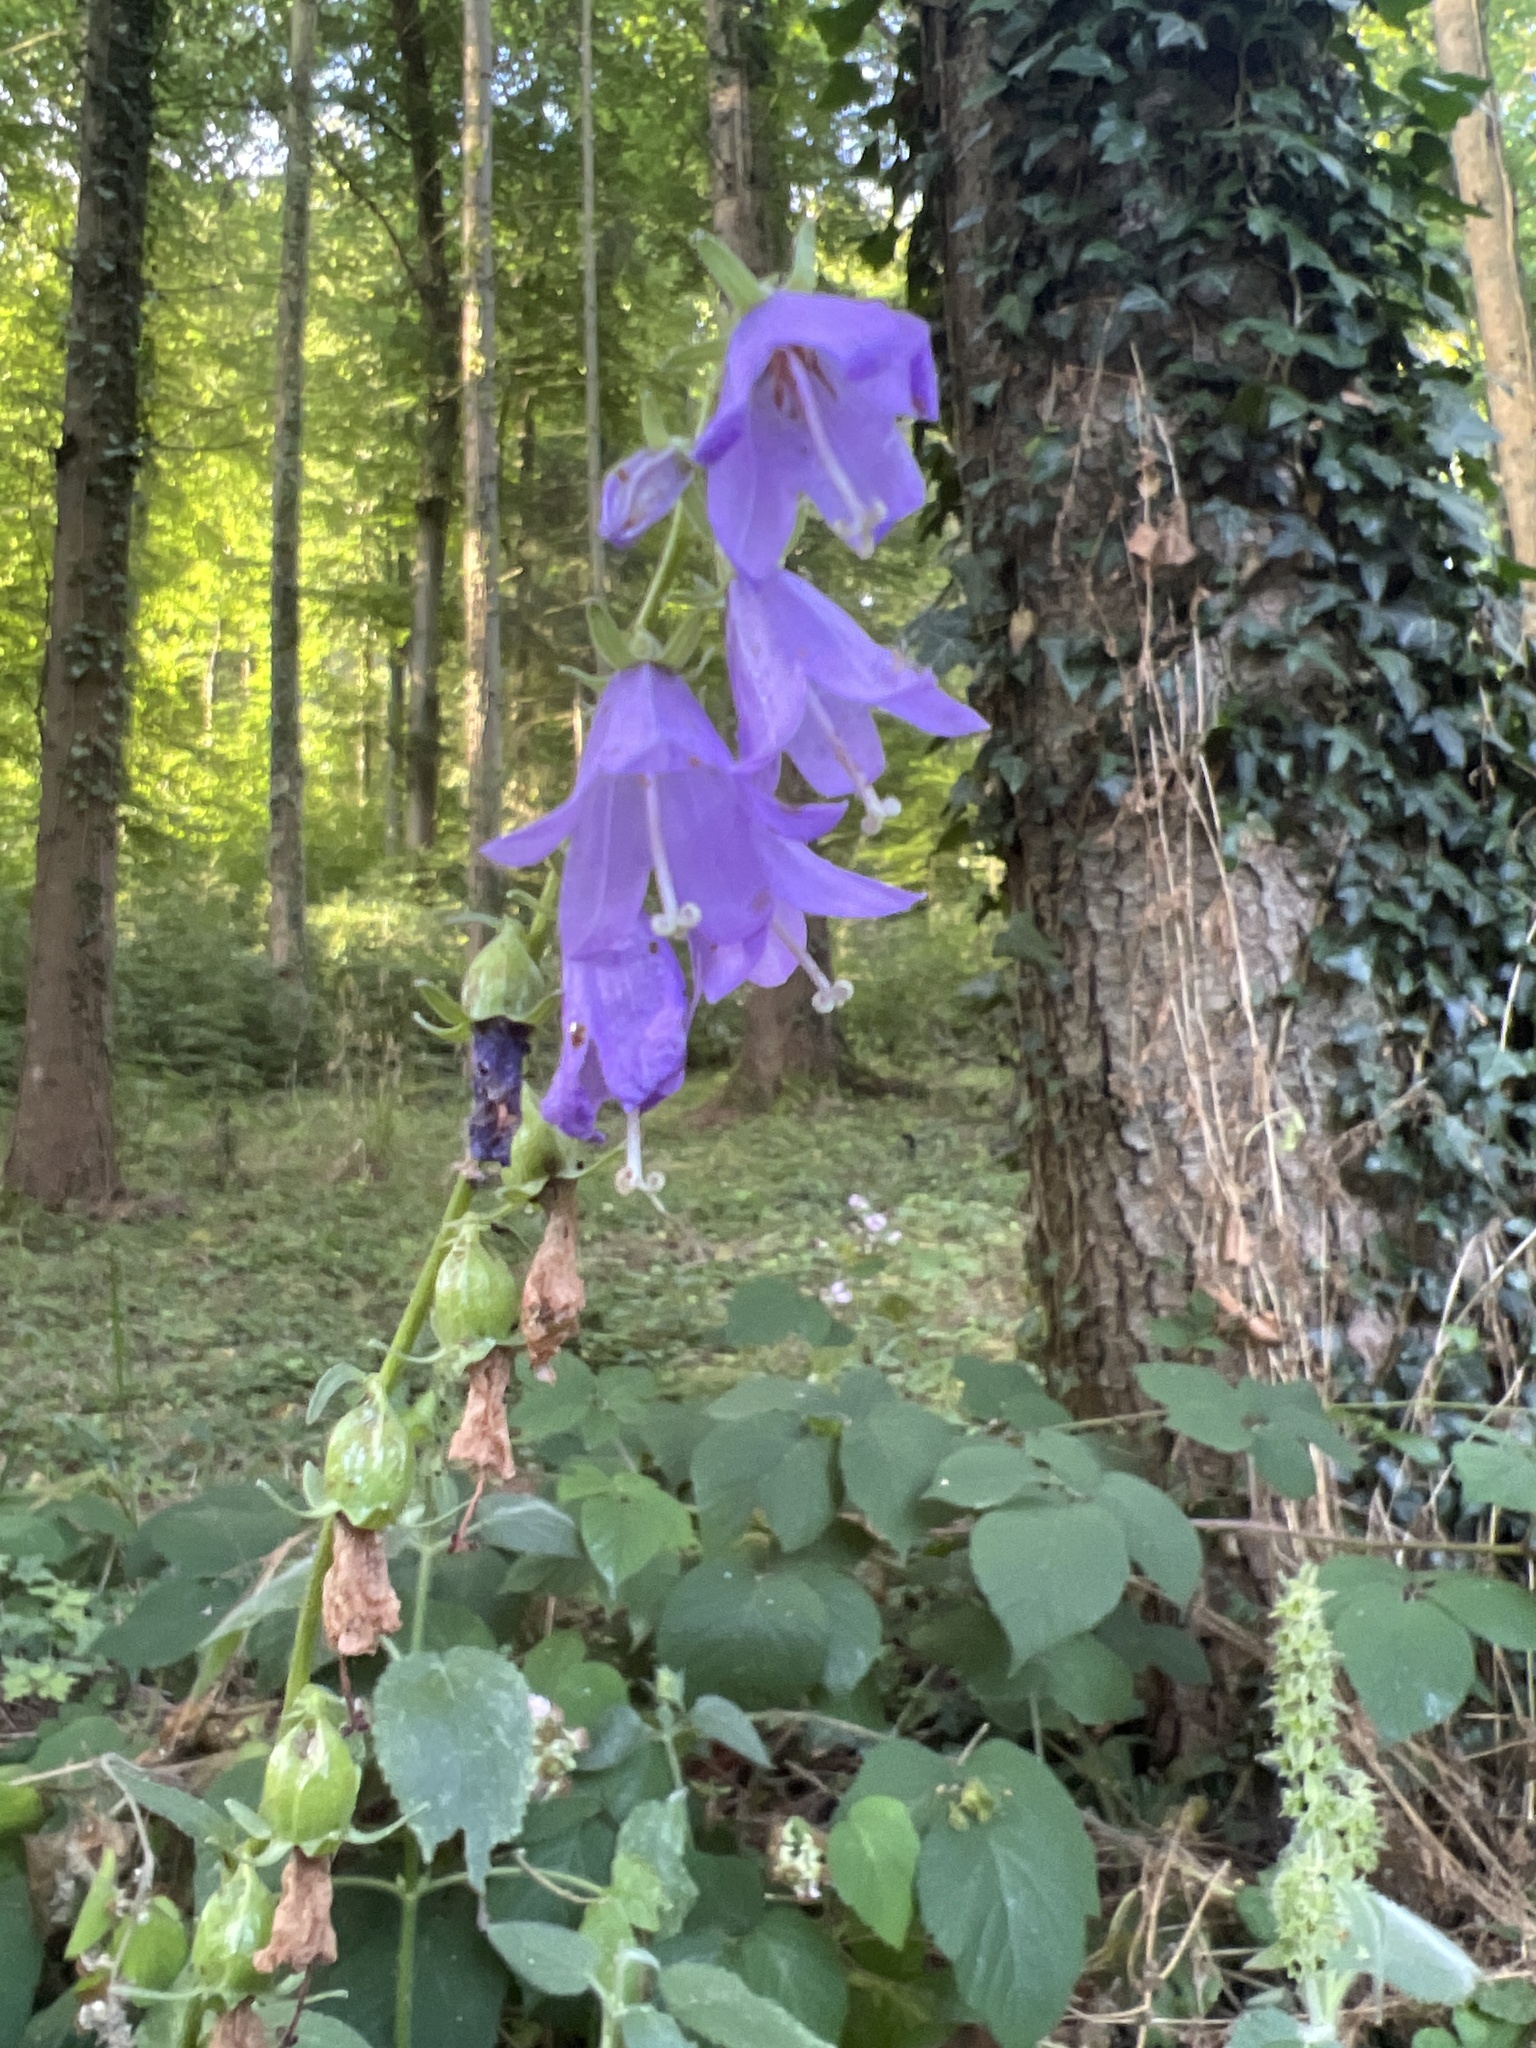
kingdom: Plantae
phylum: Tracheophyta
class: Magnoliopsida
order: Asterales
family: Campanulaceae
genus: Campanula
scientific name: Campanula rapunculoides
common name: Creeping bellflower
